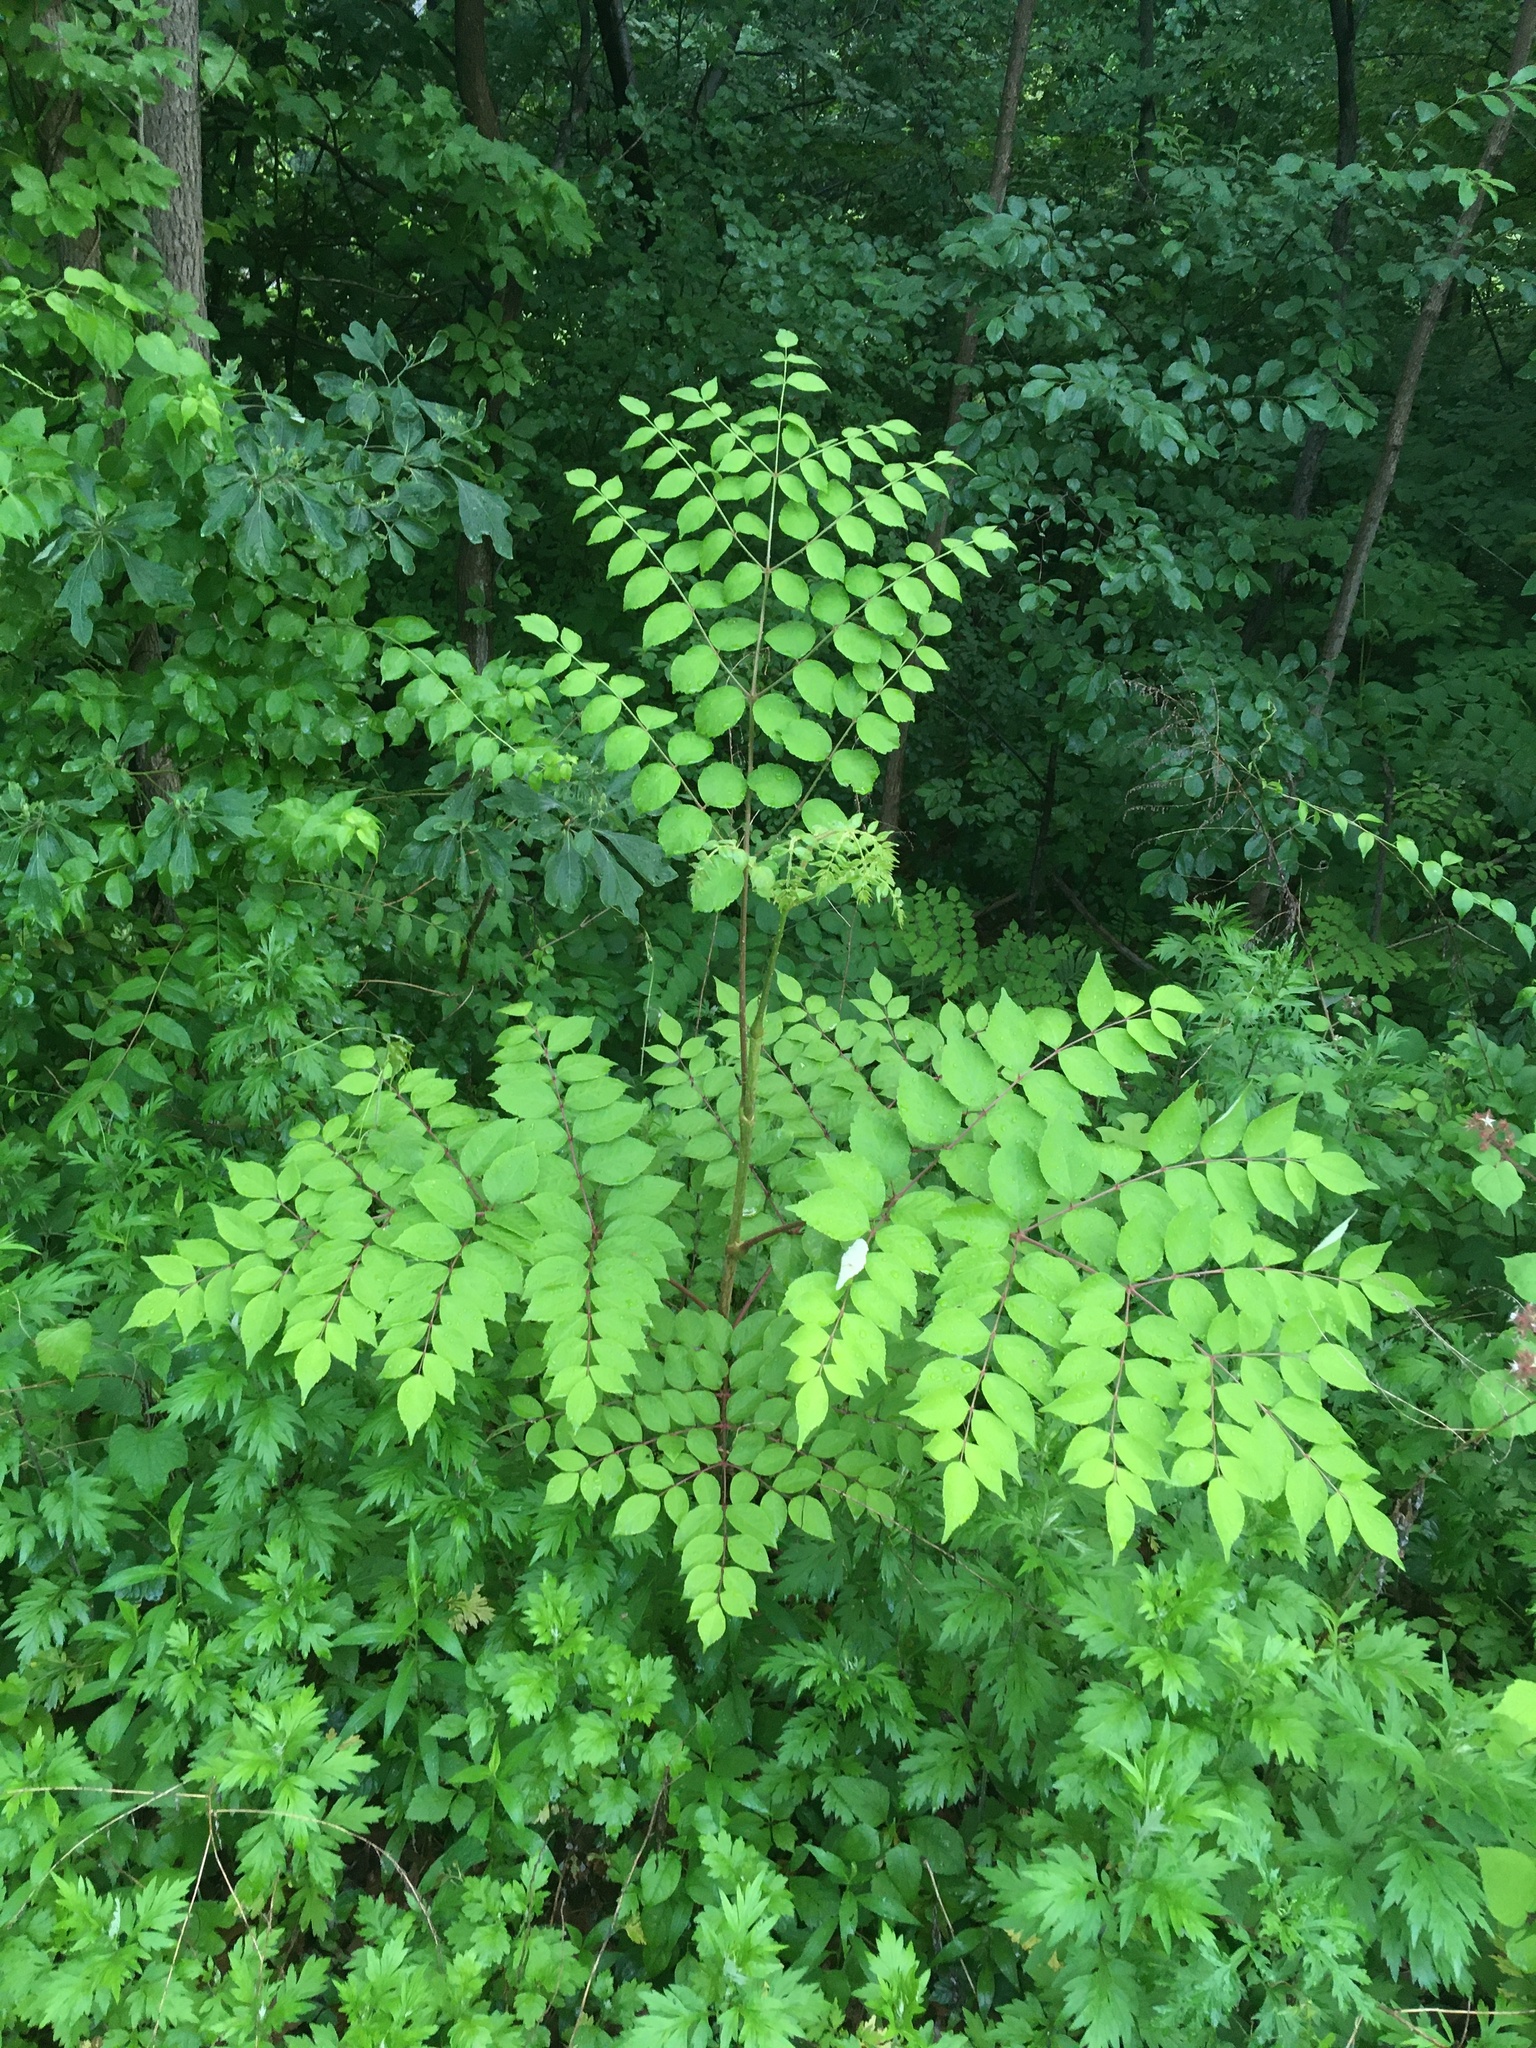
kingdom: Plantae
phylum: Tracheophyta
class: Magnoliopsida
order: Apiales
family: Araliaceae
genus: Aralia
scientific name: Aralia elata
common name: Japanese angelica-tree
